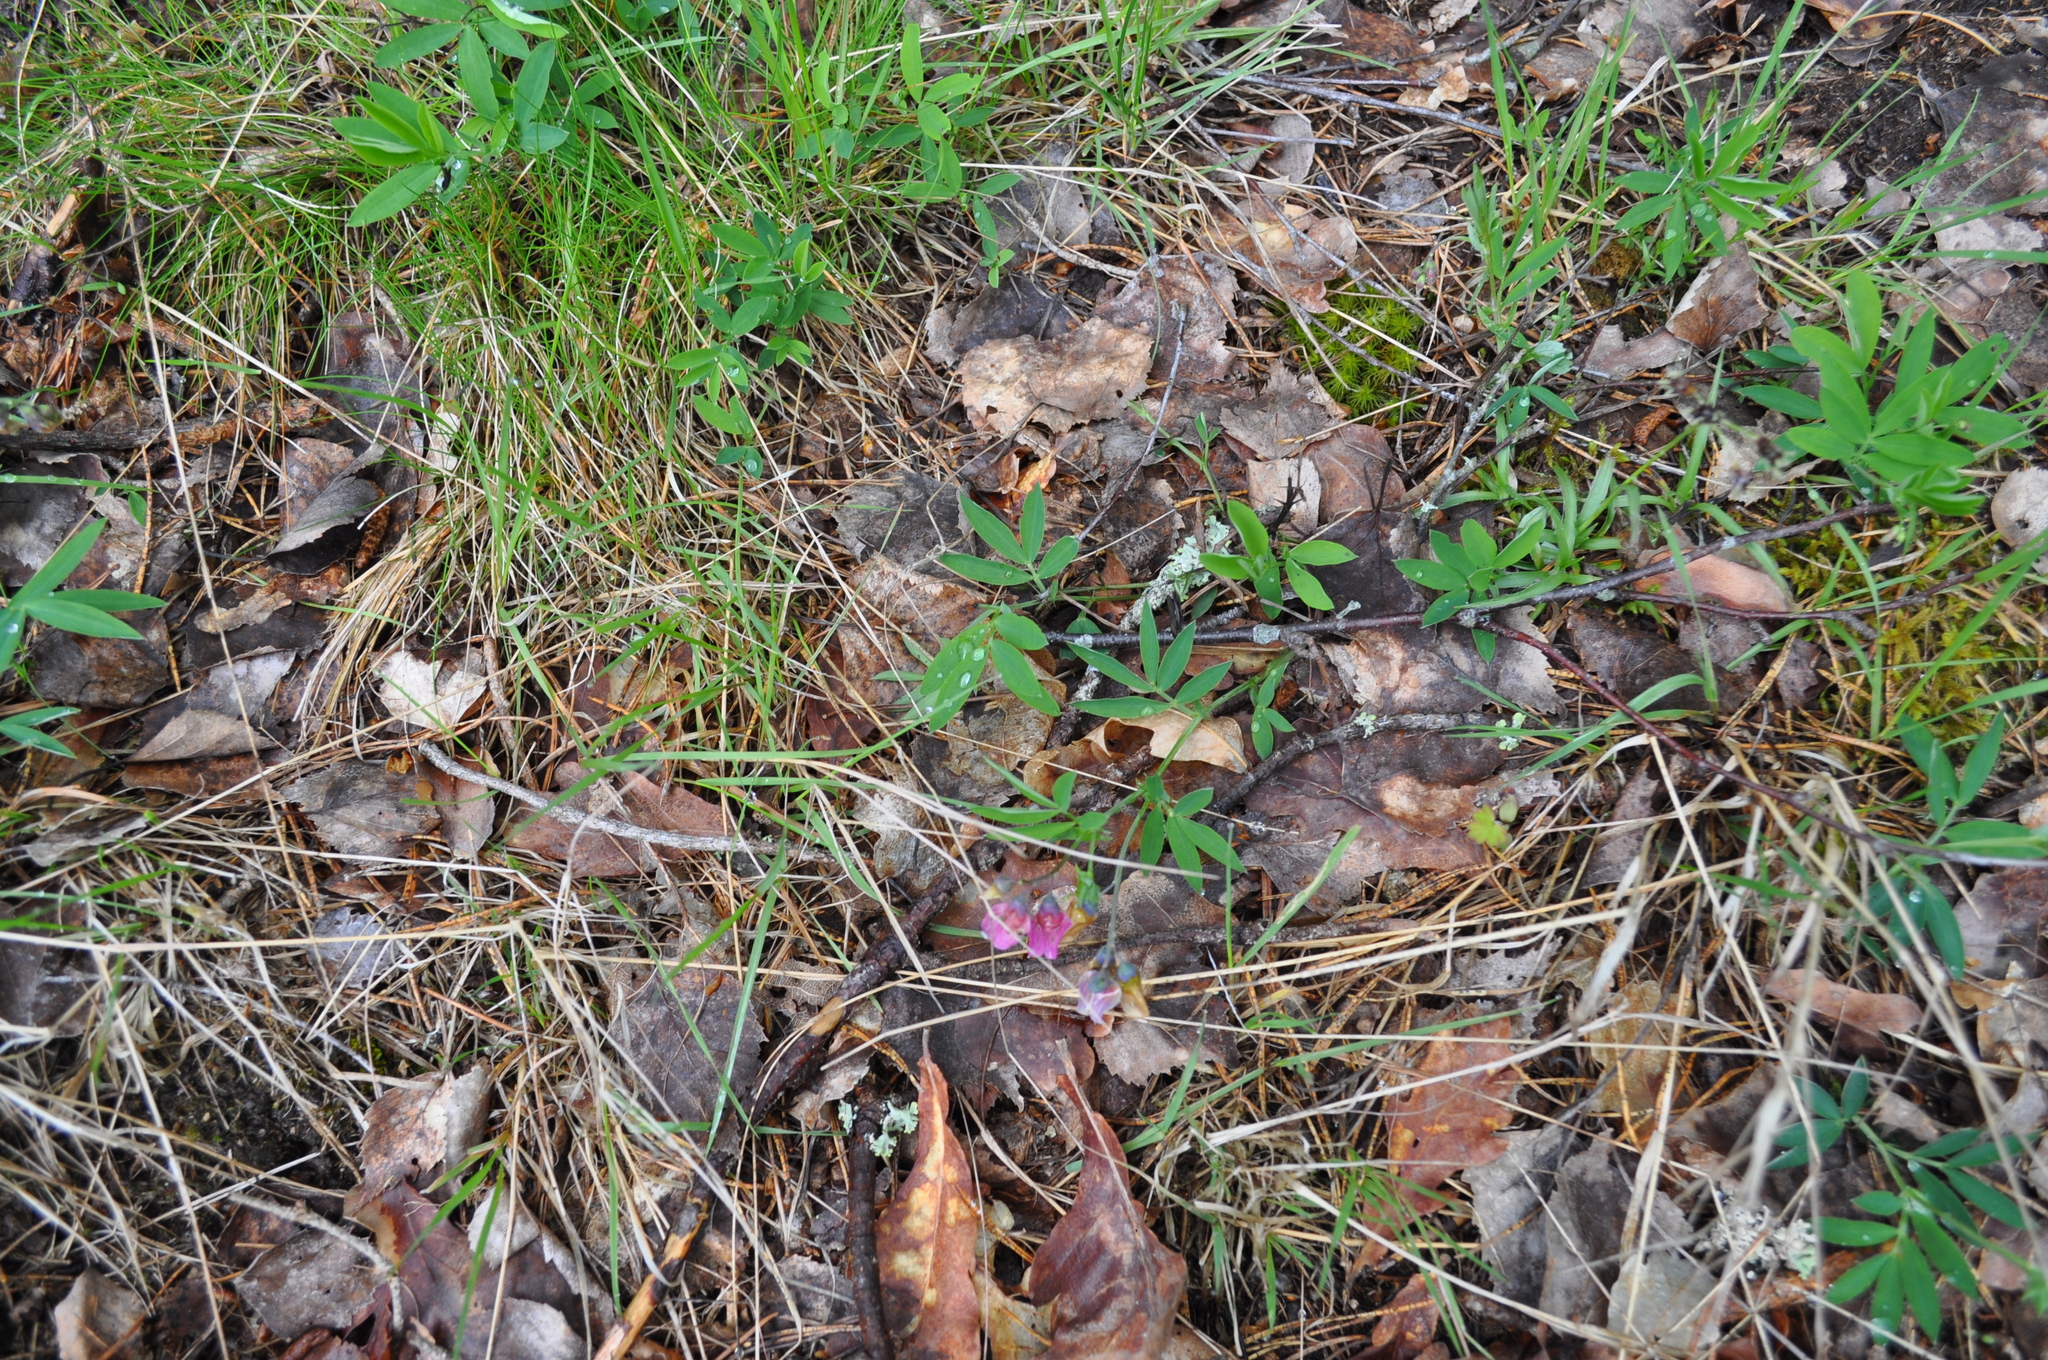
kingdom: Plantae
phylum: Tracheophyta
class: Magnoliopsida
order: Fabales
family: Fabaceae
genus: Lathyrus
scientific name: Lathyrus linifolius
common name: Bitter-vetch
